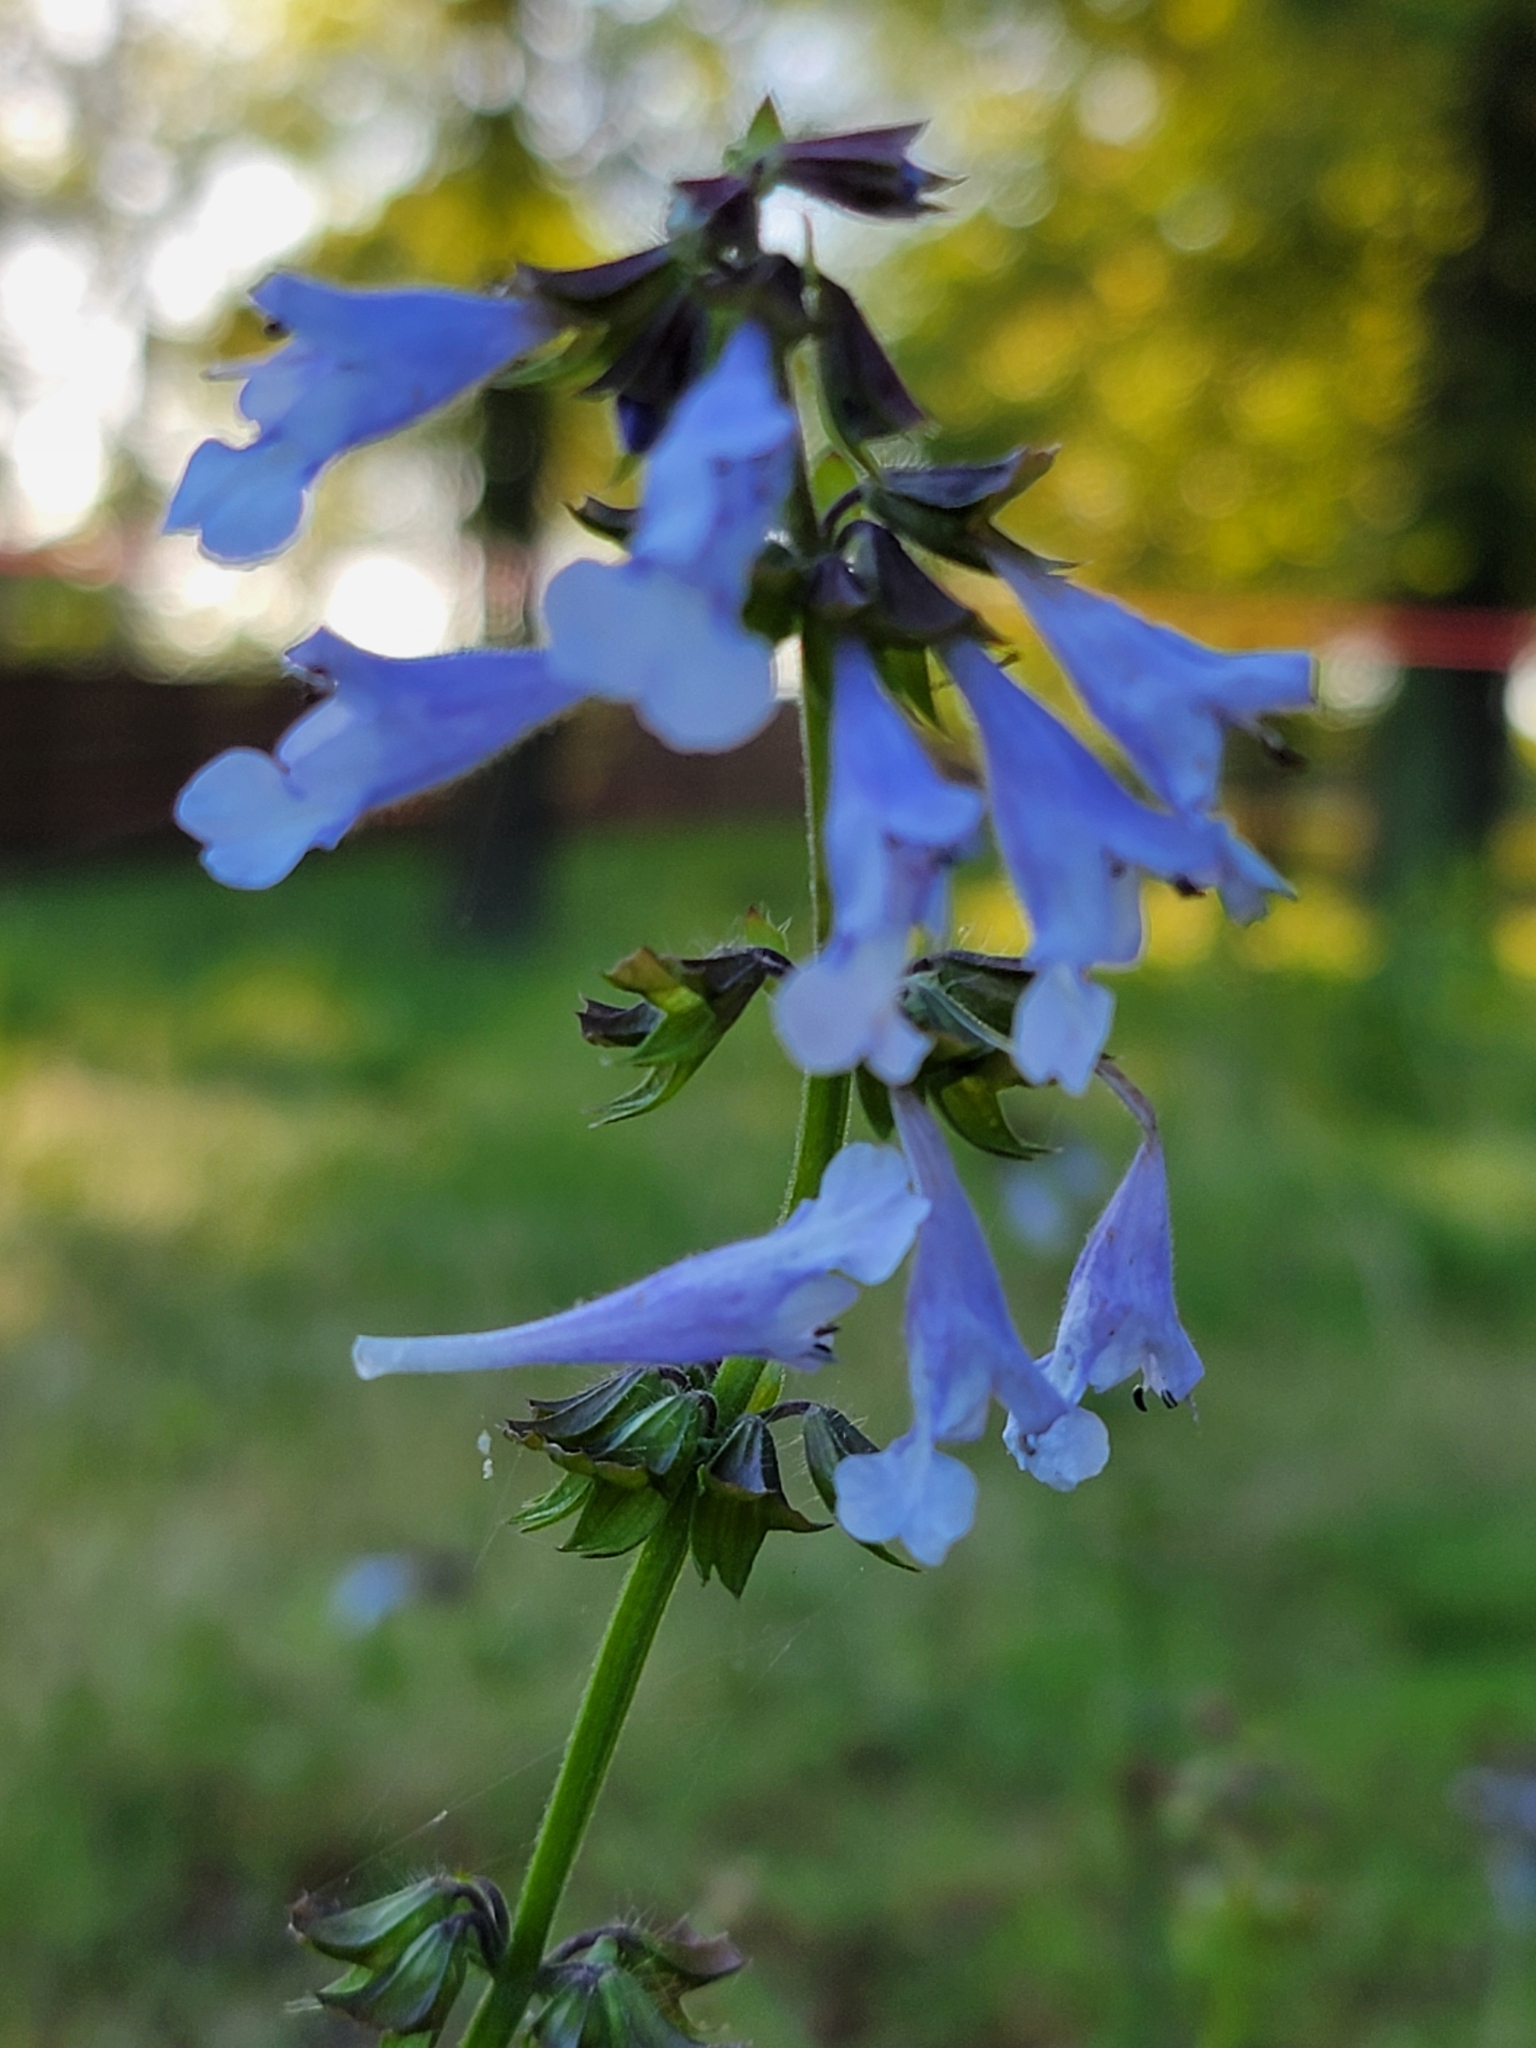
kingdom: Plantae
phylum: Tracheophyta
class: Magnoliopsida
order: Lamiales
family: Lamiaceae
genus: Salvia
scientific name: Salvia lyrata
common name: Cancerweed
